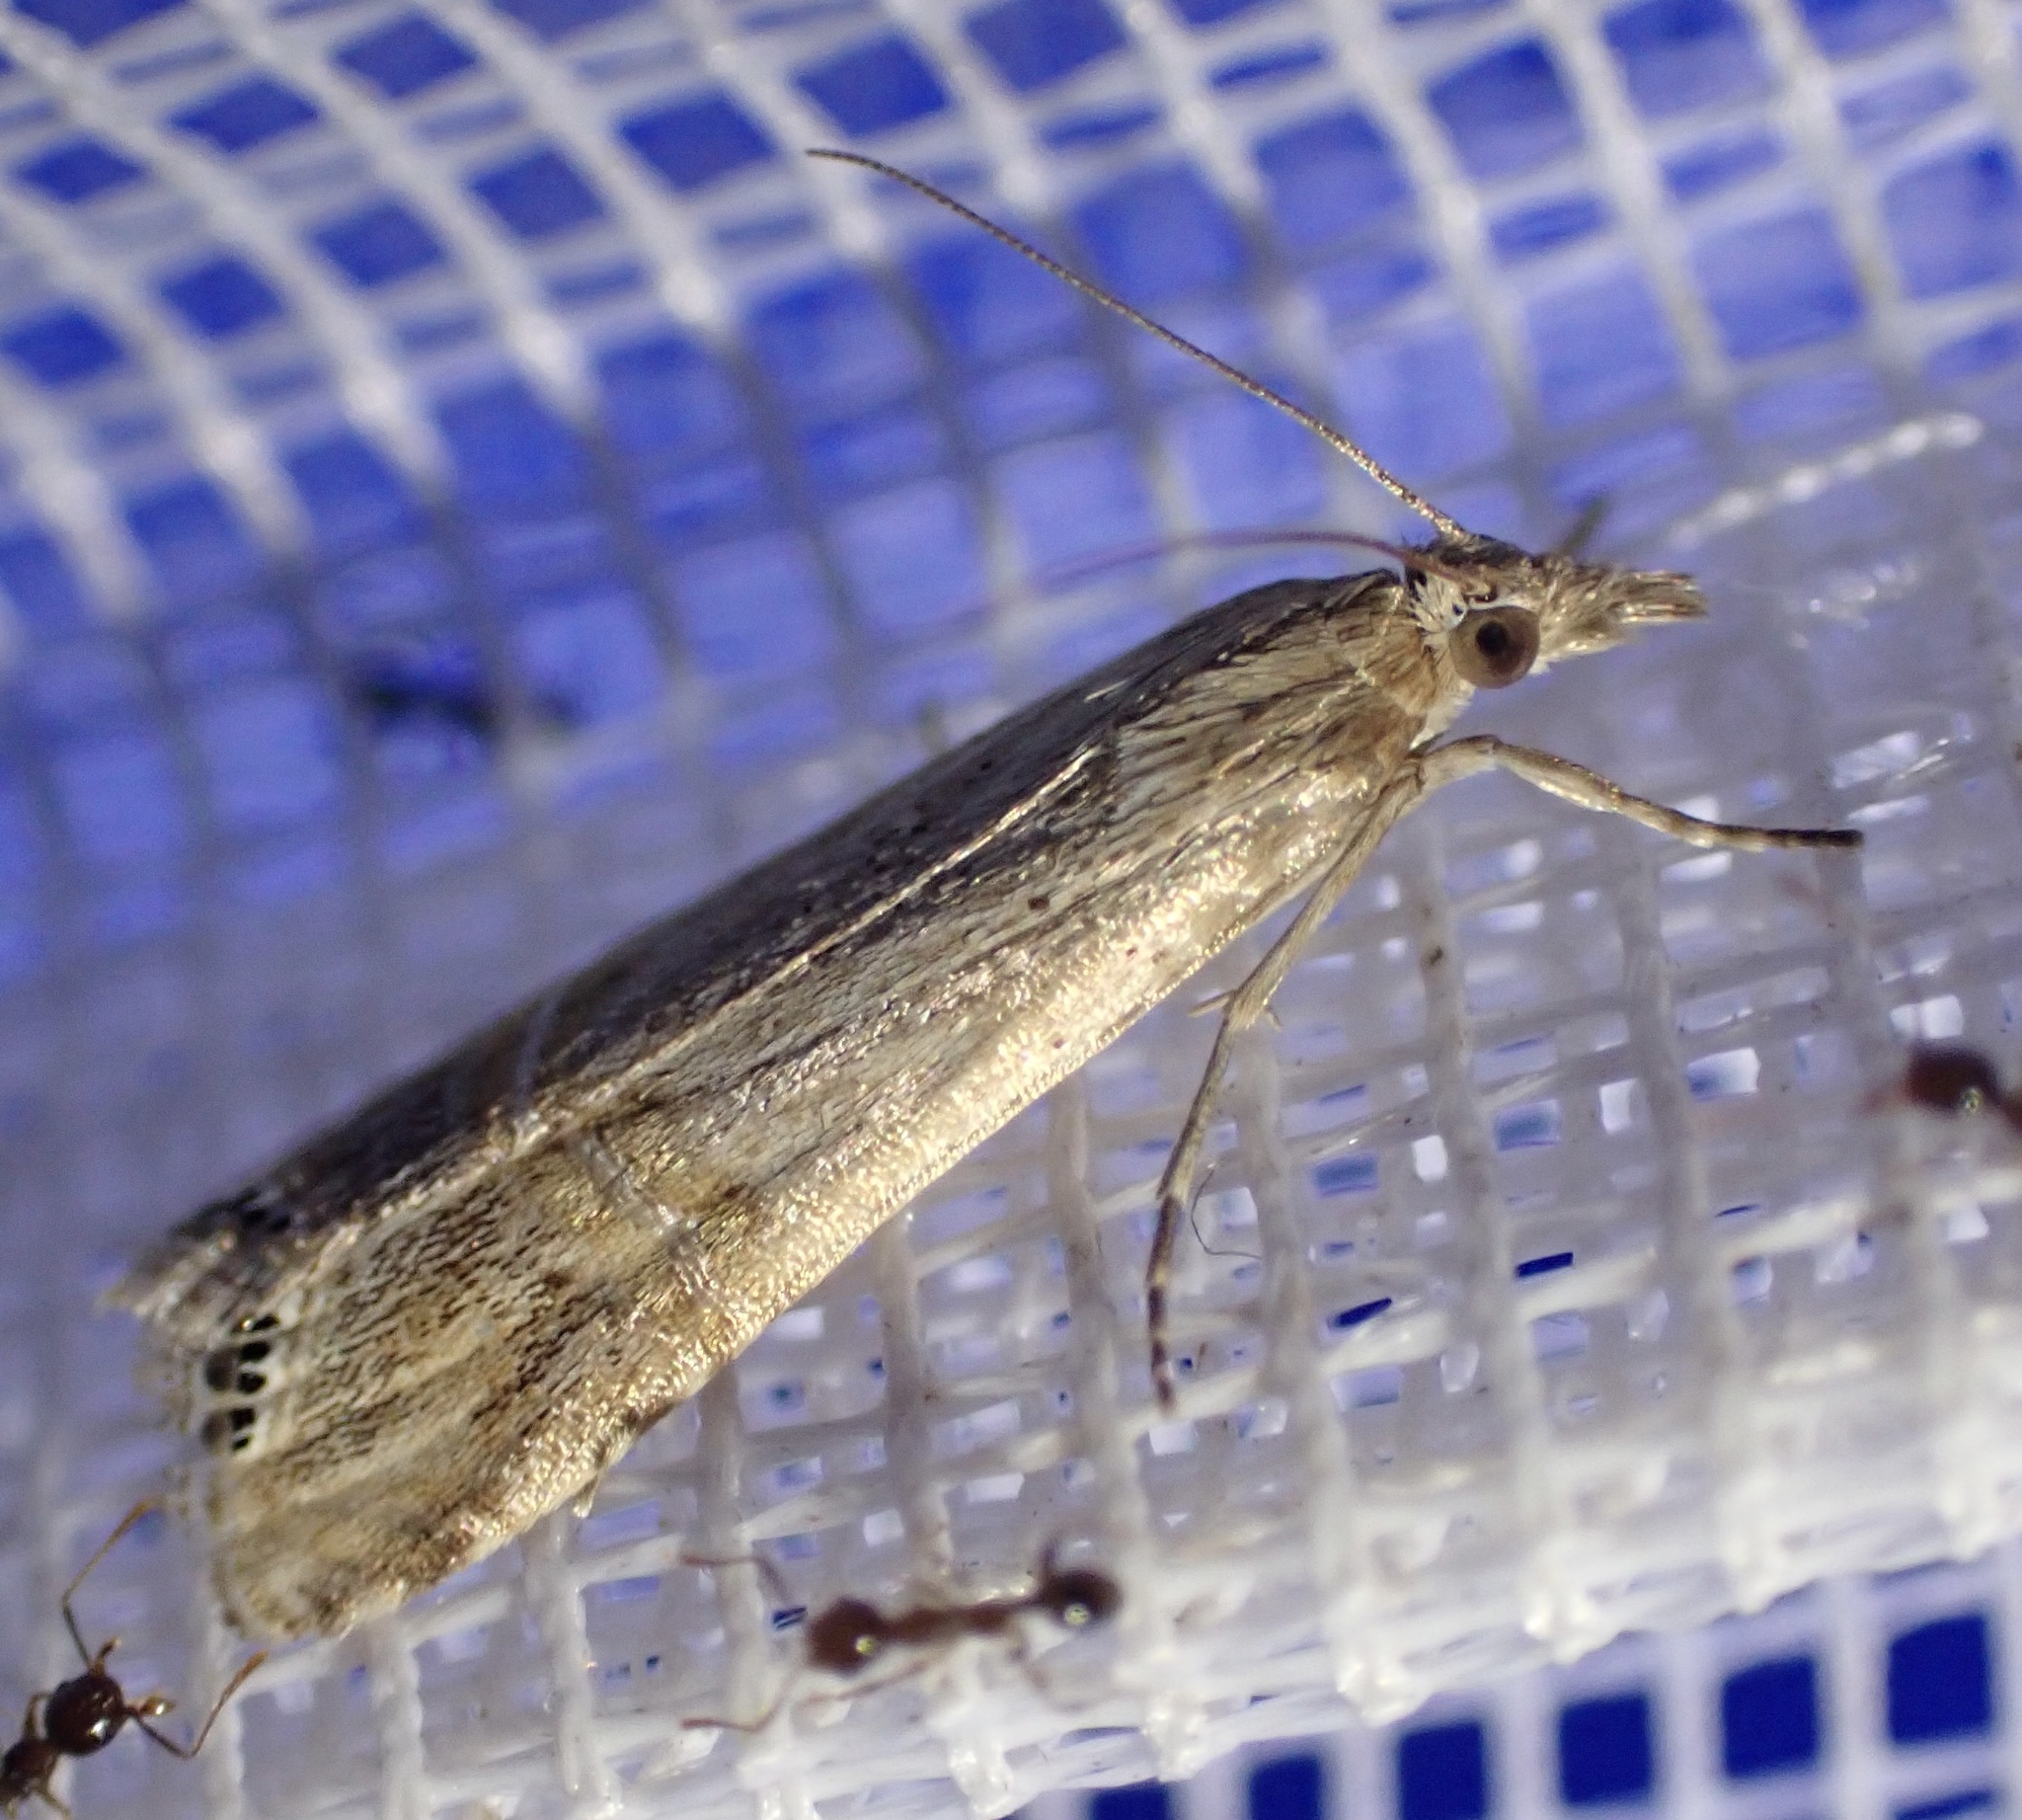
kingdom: Animalia
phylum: Arthropoda
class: Insecta
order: Lepidoptera
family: Crambidae
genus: Euchromius
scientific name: Euchromius ocellea
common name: Necklace veneer moth
